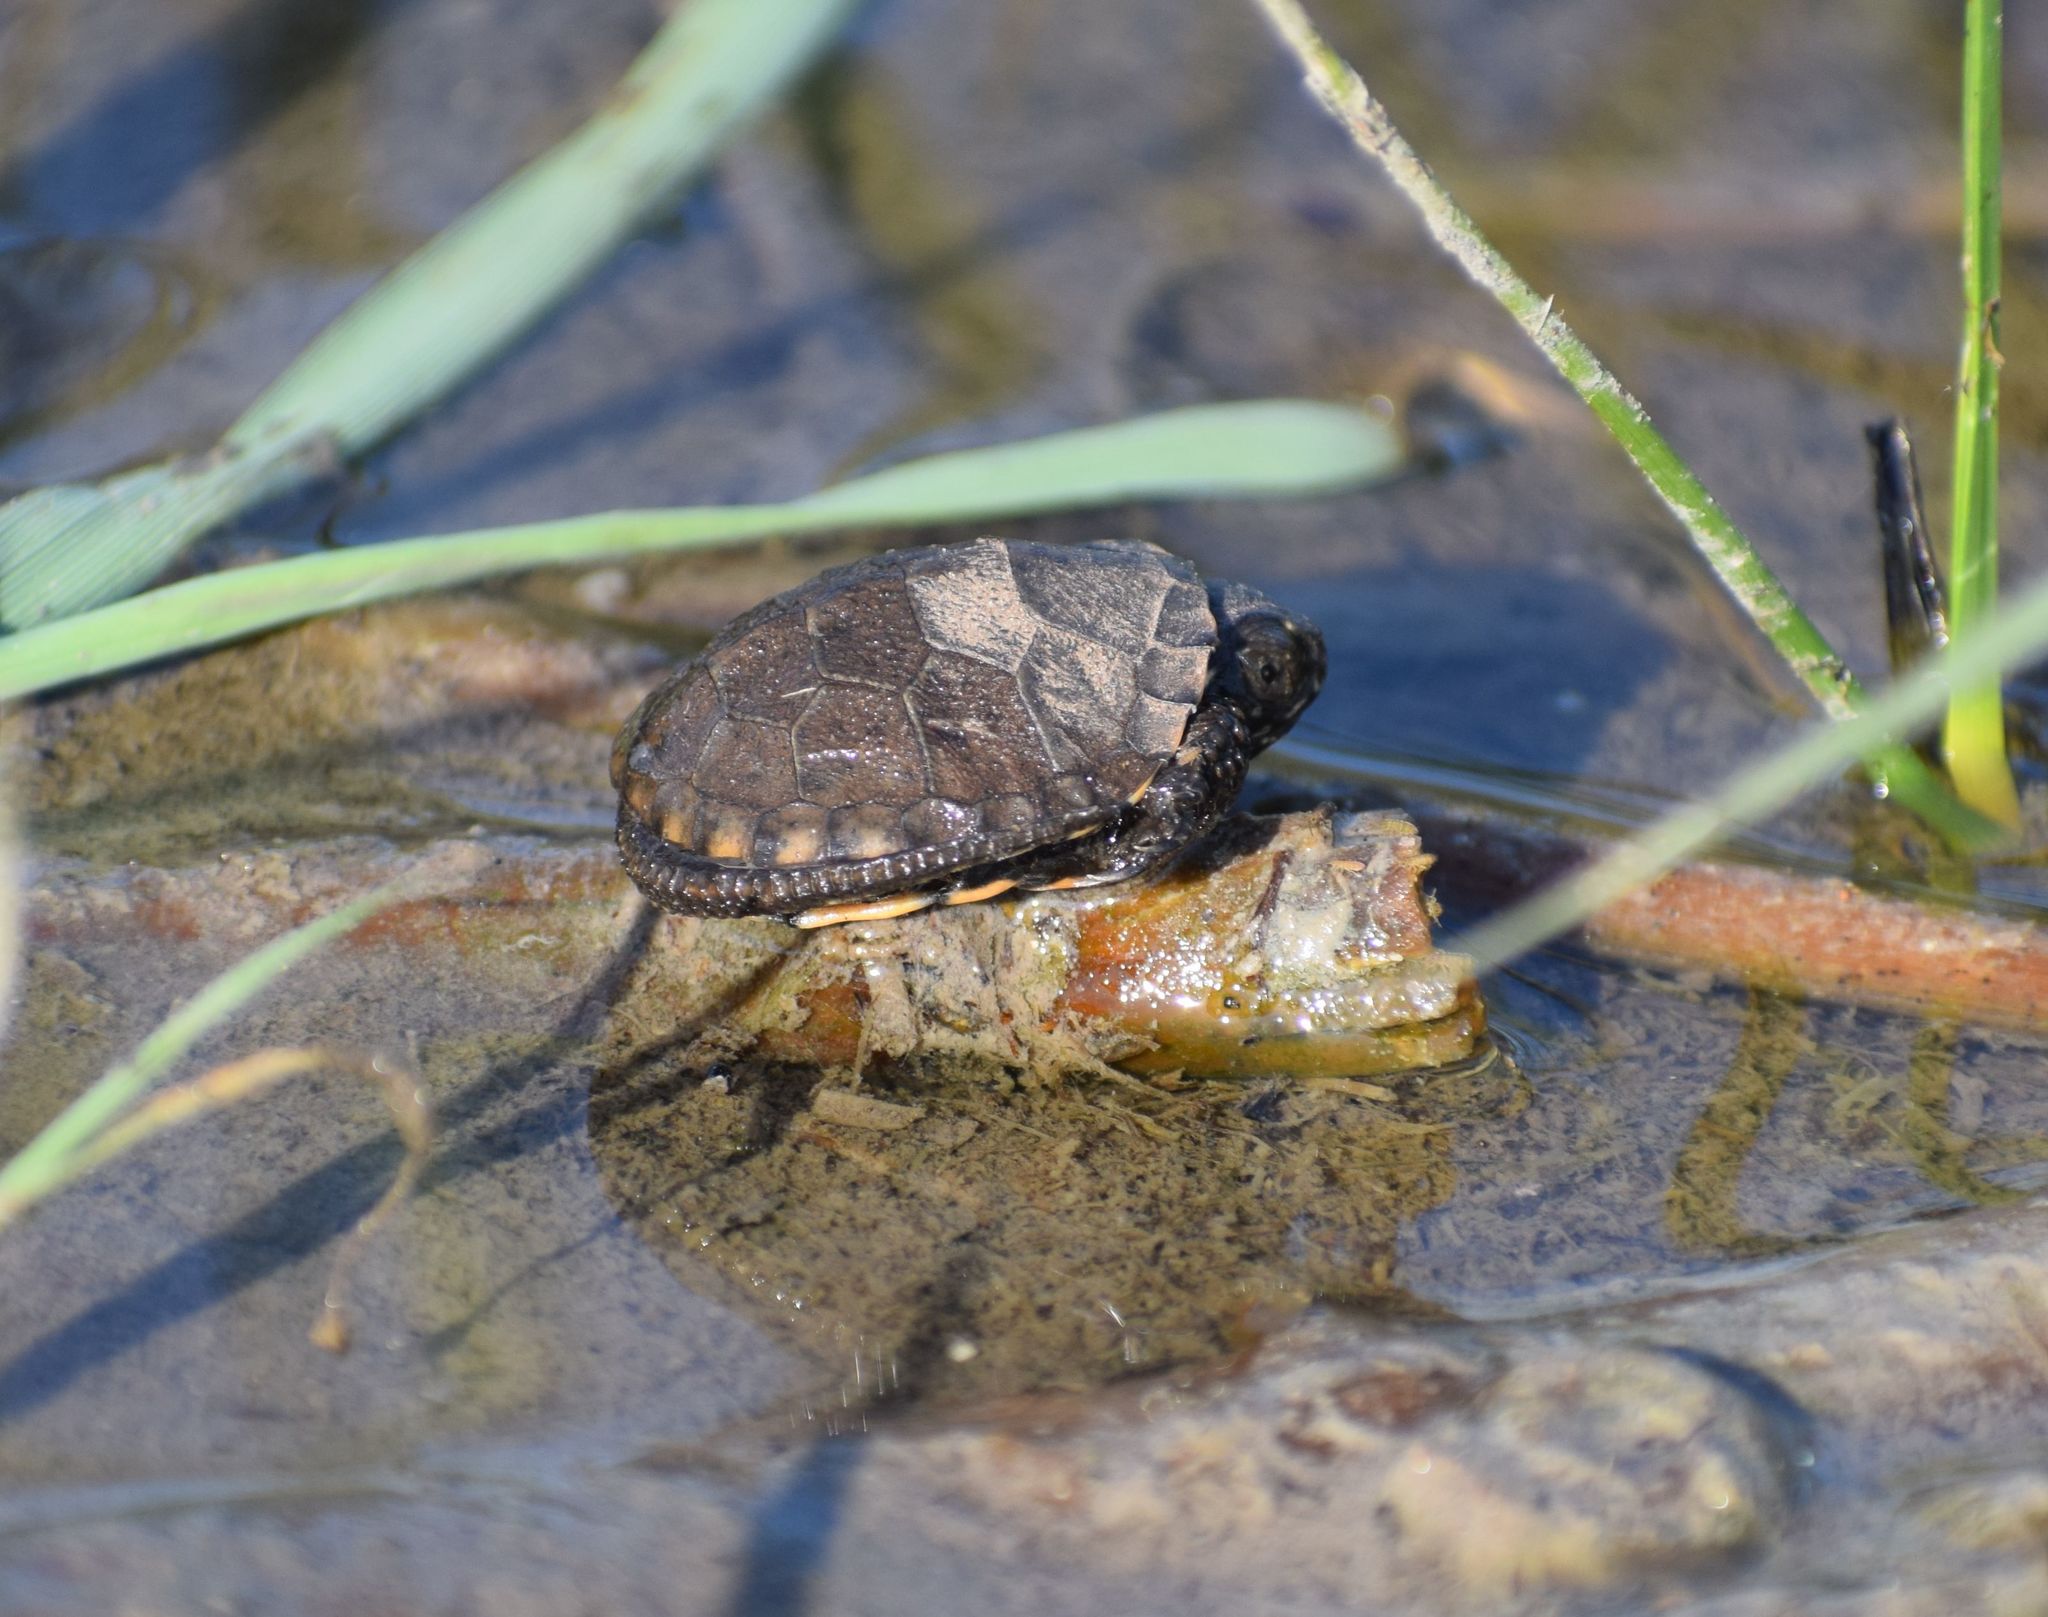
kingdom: Animalia
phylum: Chordata
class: Testudines
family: Emydidae
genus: Emys
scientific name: Emys orbicularis
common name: European pond turtle
